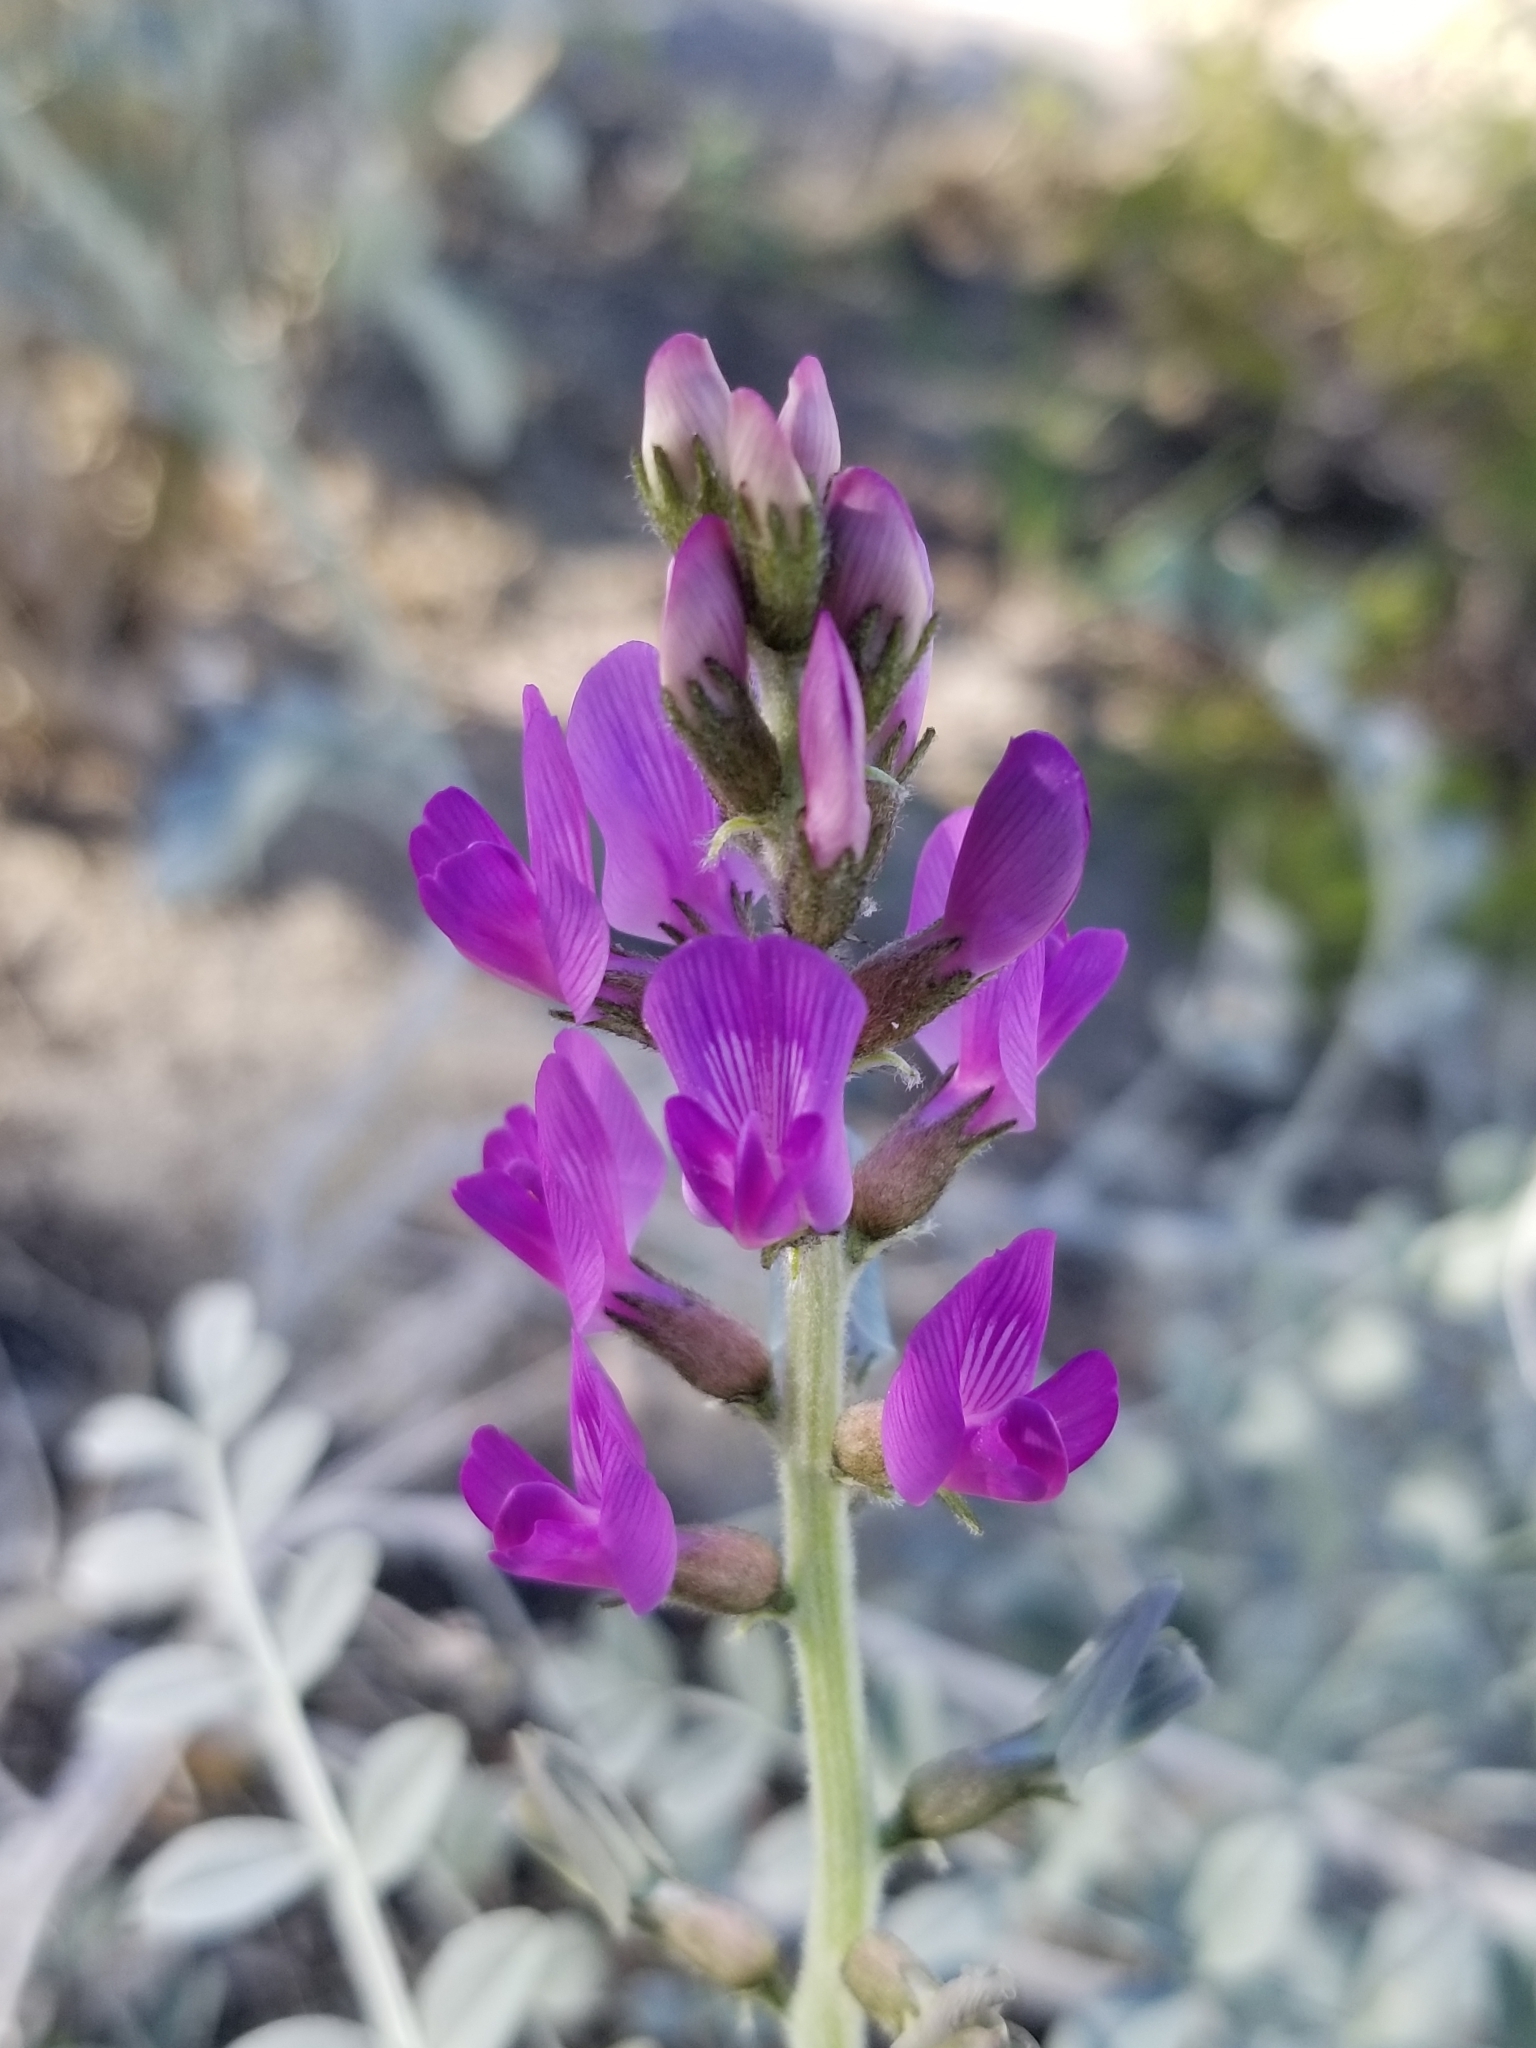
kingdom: Plantae
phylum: Tracheophyta
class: Magnoliopsida
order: Fabales
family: Fabaceae
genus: Astragalus
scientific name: Astragalus lentiginosus
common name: Freckled milkvetch
